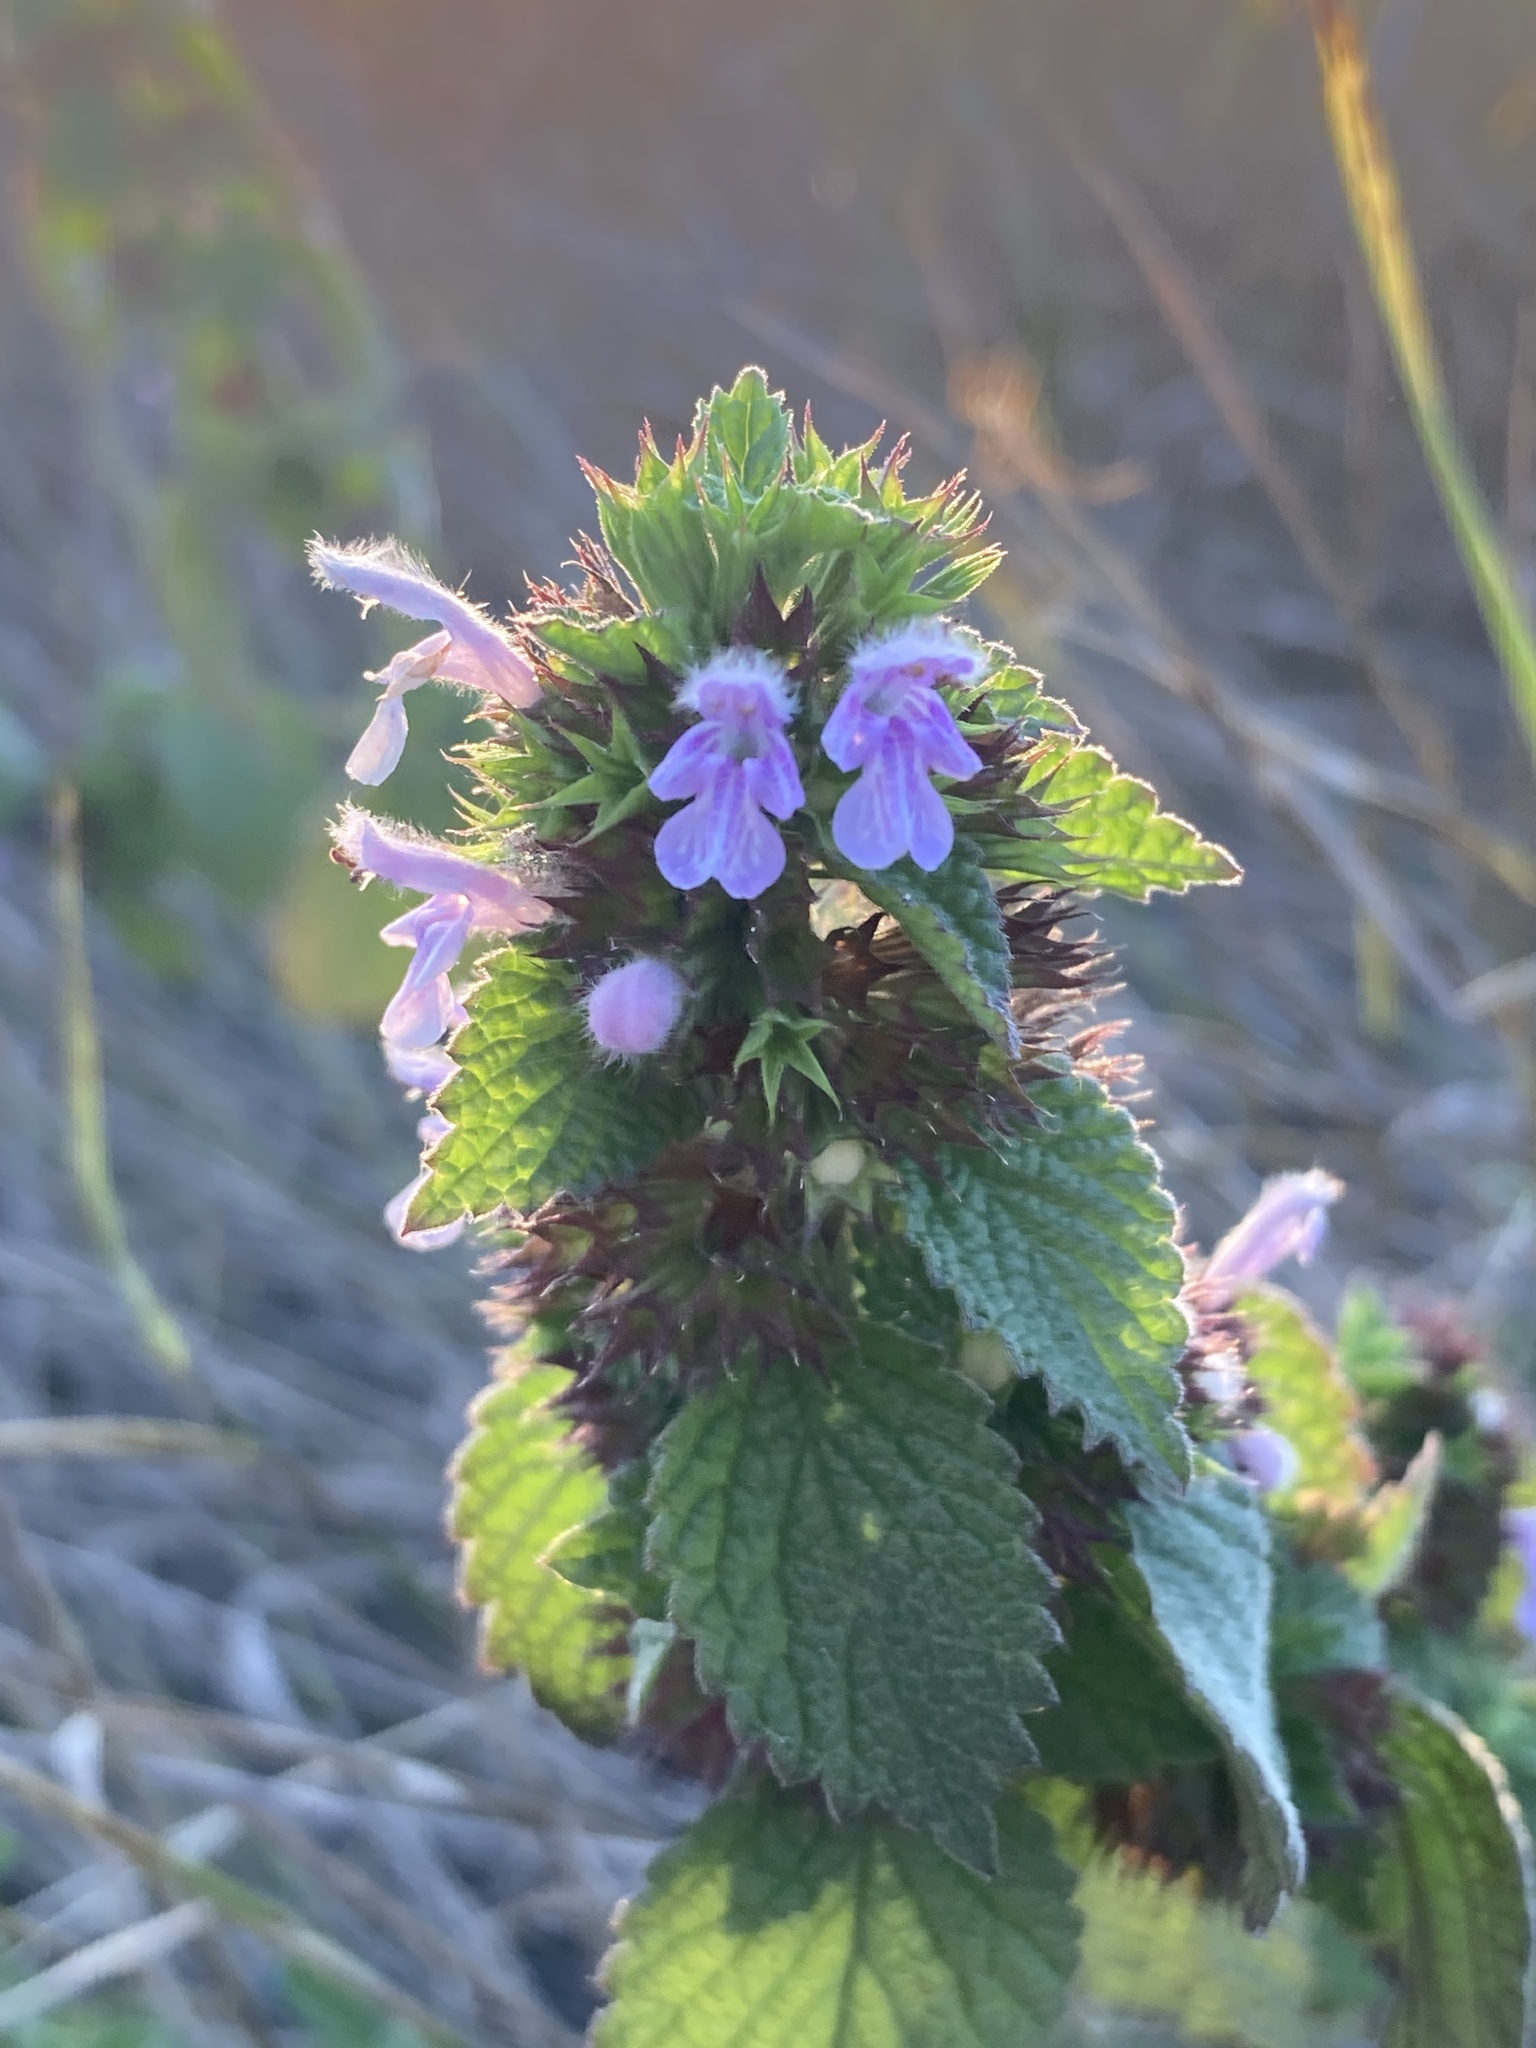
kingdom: Plantae
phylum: Tracheophyta
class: Magnoliopsida
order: Lamiales
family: Lamiaceae
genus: Ballota
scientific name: Ballota nigra
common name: Black horehound
